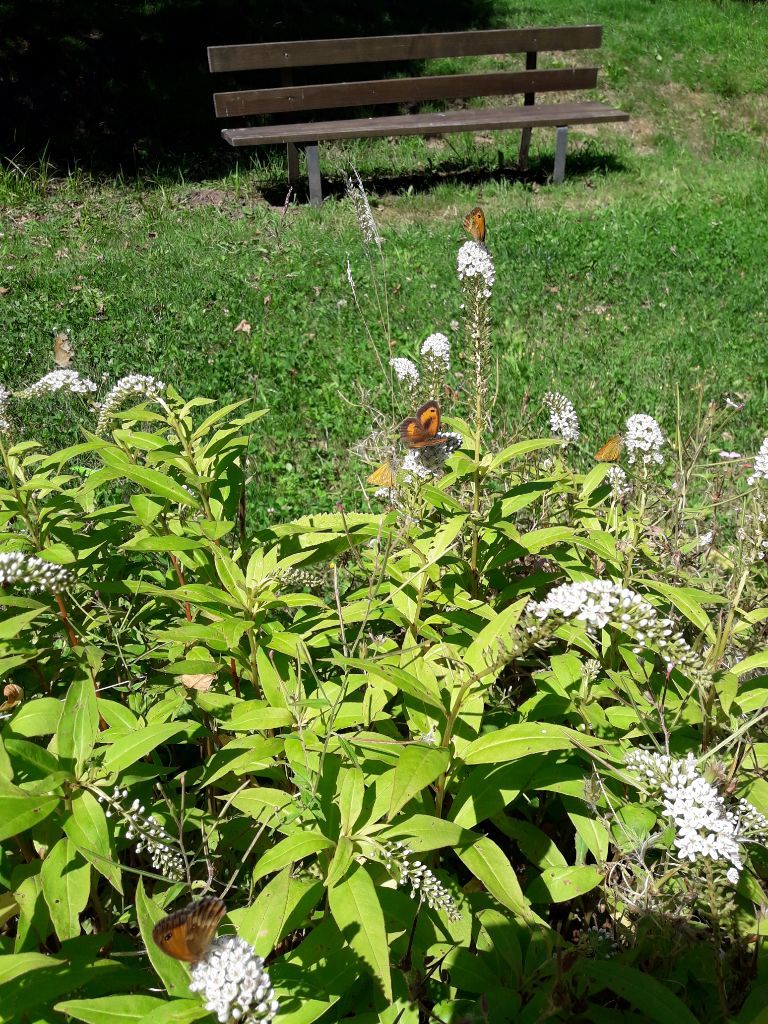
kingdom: Animalia
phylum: Arthropoda
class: Insecta
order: Lepidoptera
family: Nymphalidae
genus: Pyronia
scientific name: Pyronia tithonus
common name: Gatekeeper
